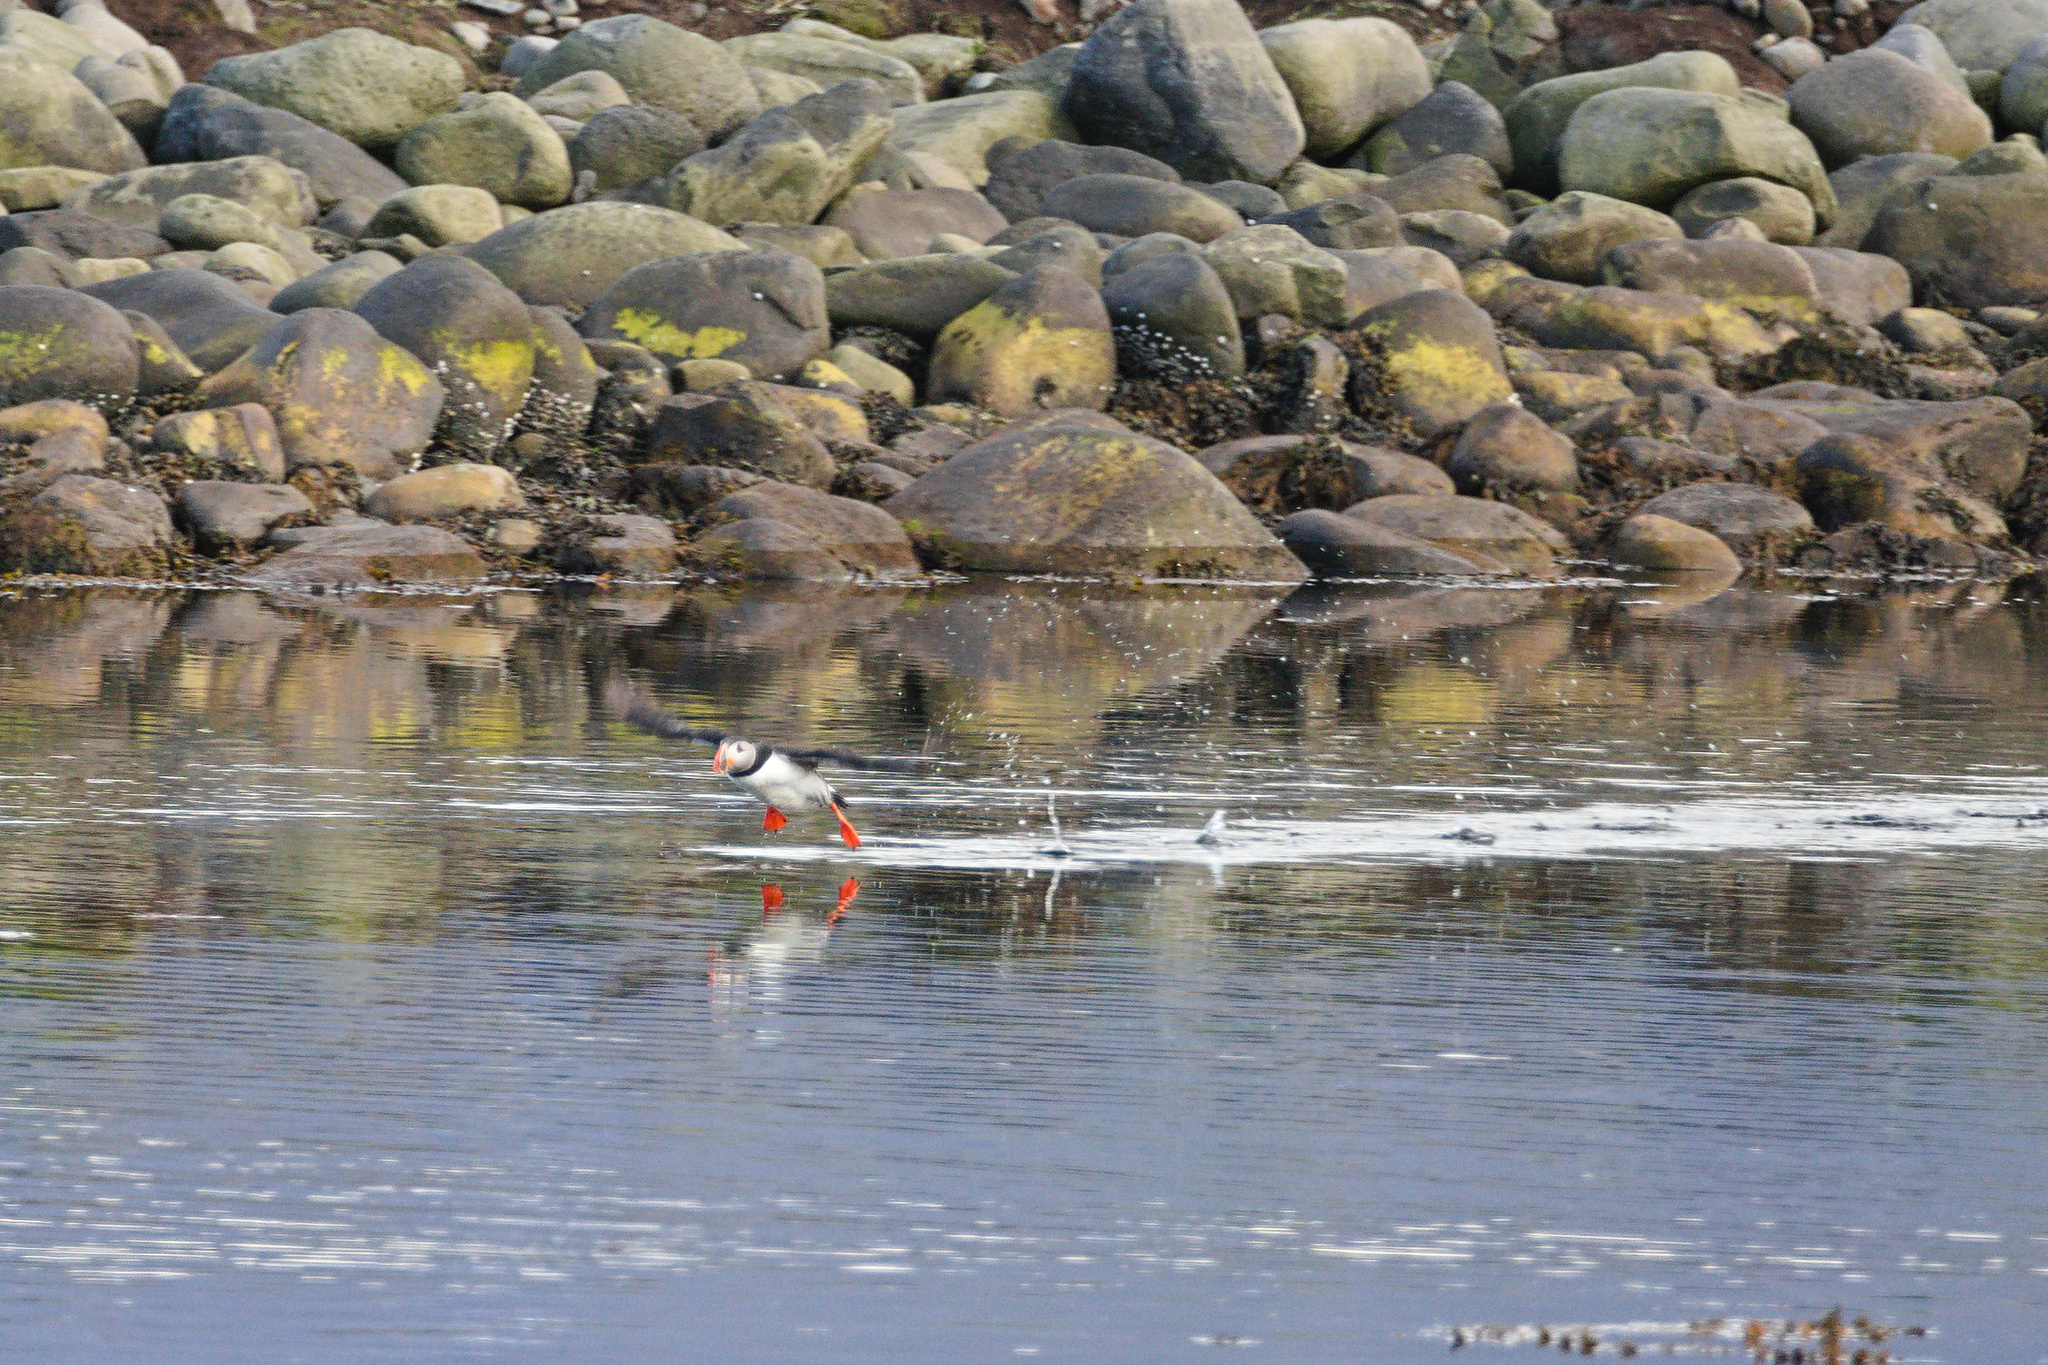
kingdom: Animalia
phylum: Chordata
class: Aves
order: Charadriiformes
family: Alcidae
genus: Fratercula
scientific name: Fratercula arctica
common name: Atlantic puffin
